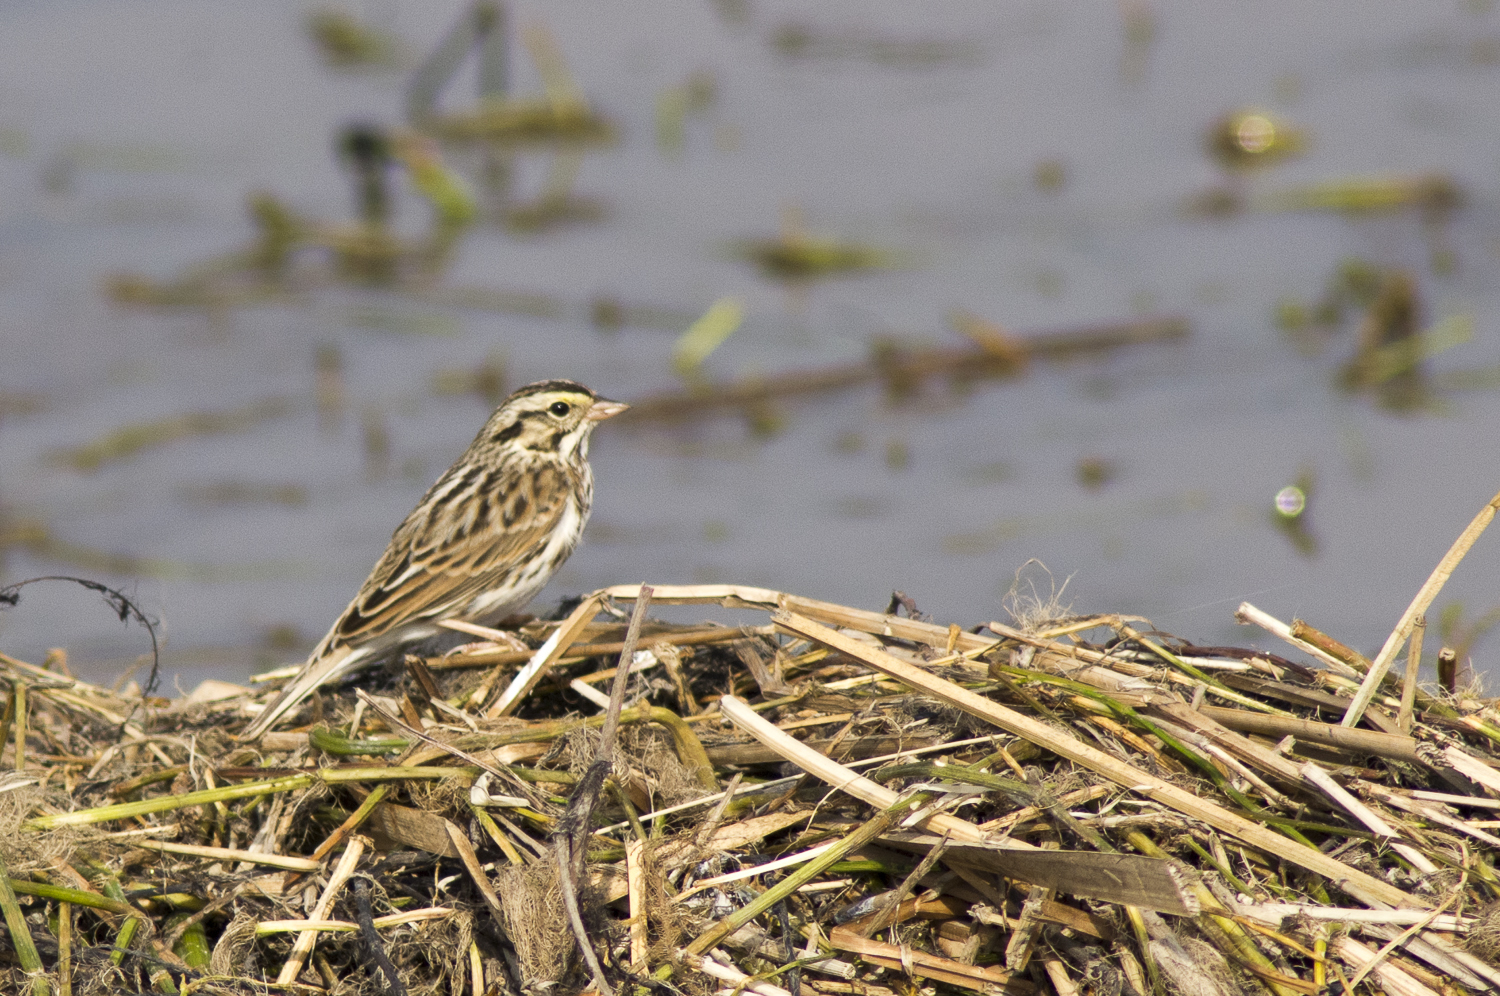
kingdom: Animalia
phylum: Chordata
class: Aves
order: Passeriformes
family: Passerellidae
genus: Passerculus
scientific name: Passerculus sandwichensis
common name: Savannah sparrow
